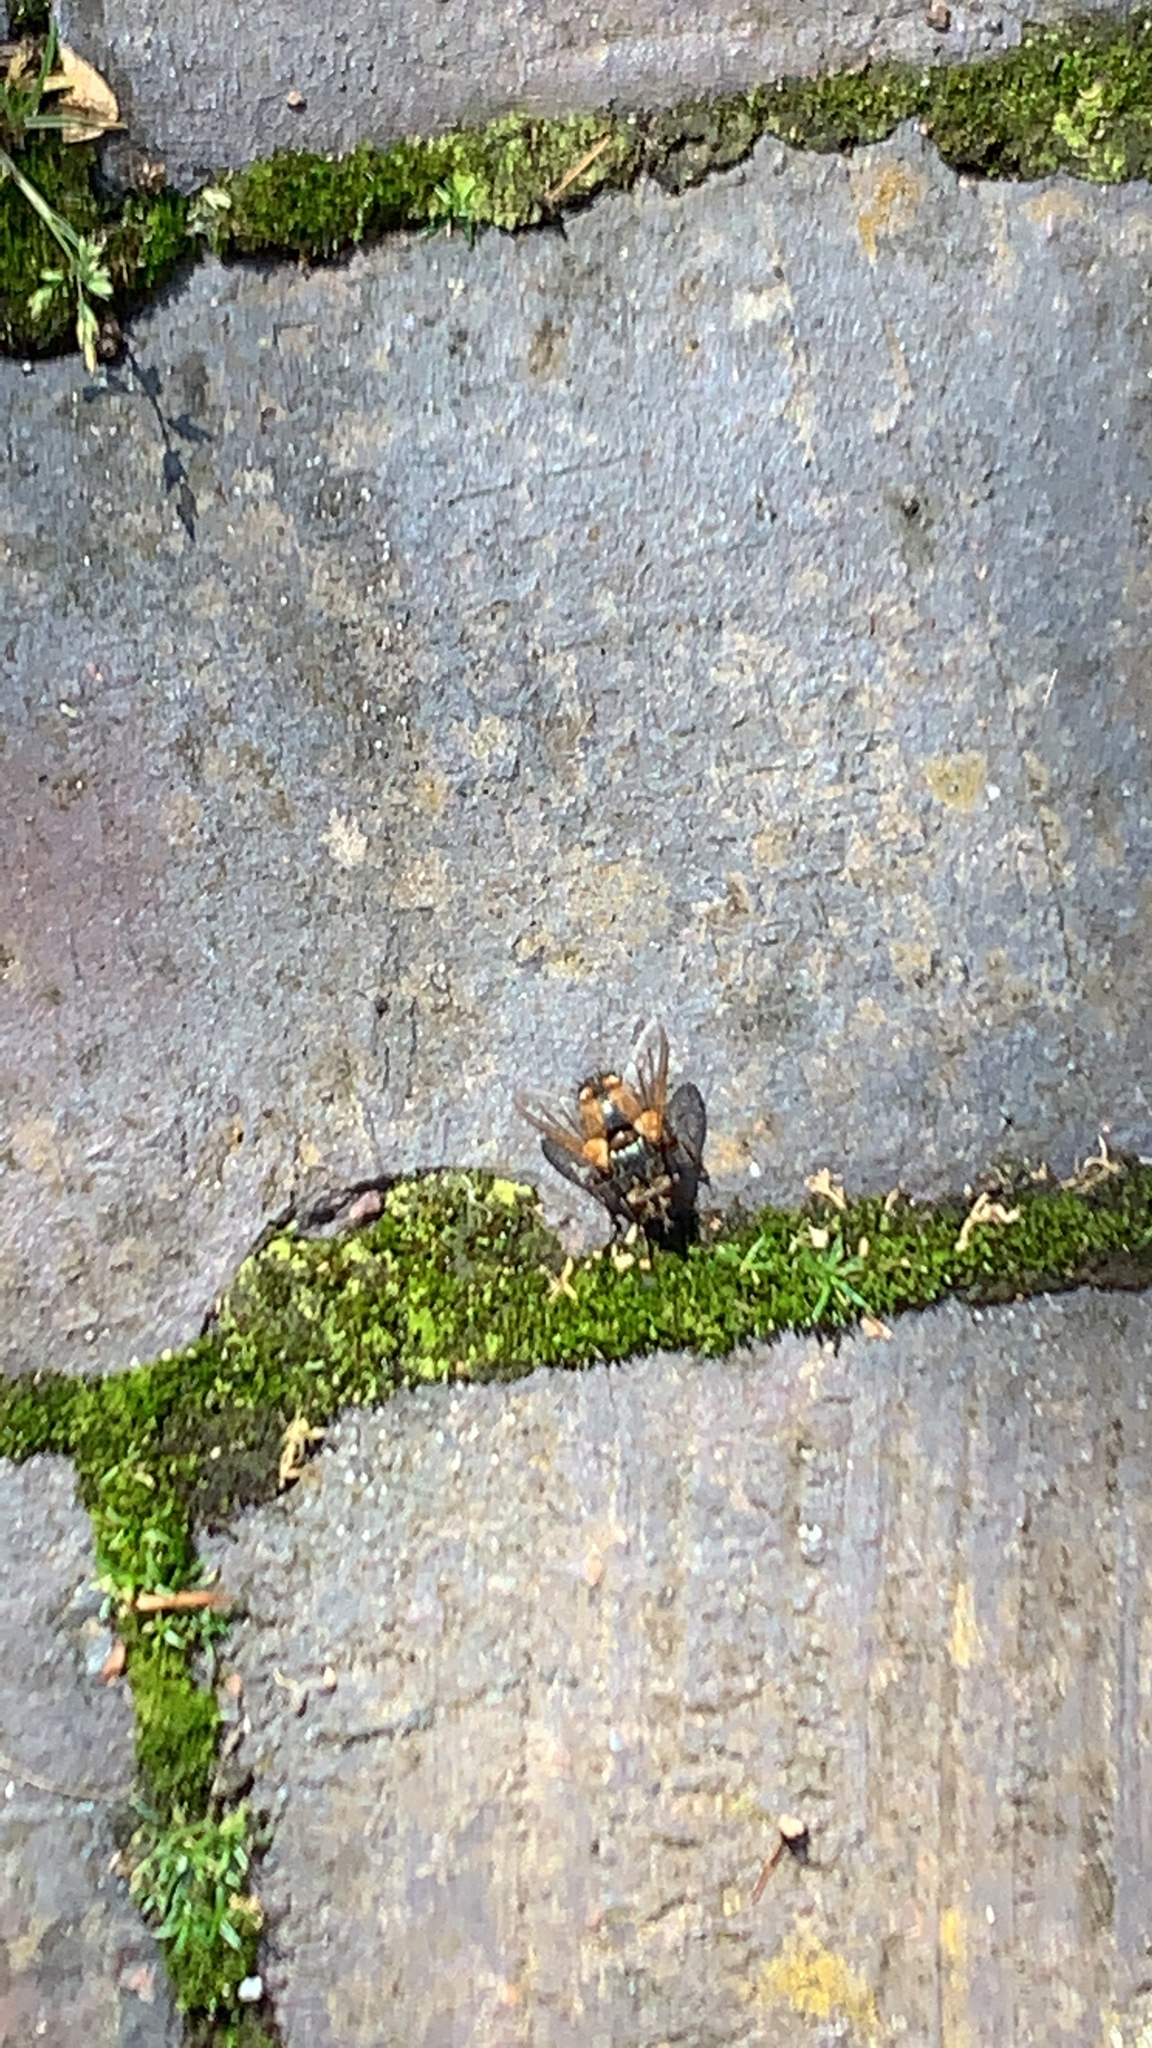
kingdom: Animalia
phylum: Arthropoda
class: Insecta
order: Diptera
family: Tachinidae
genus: Tachina
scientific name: Tachina fera
